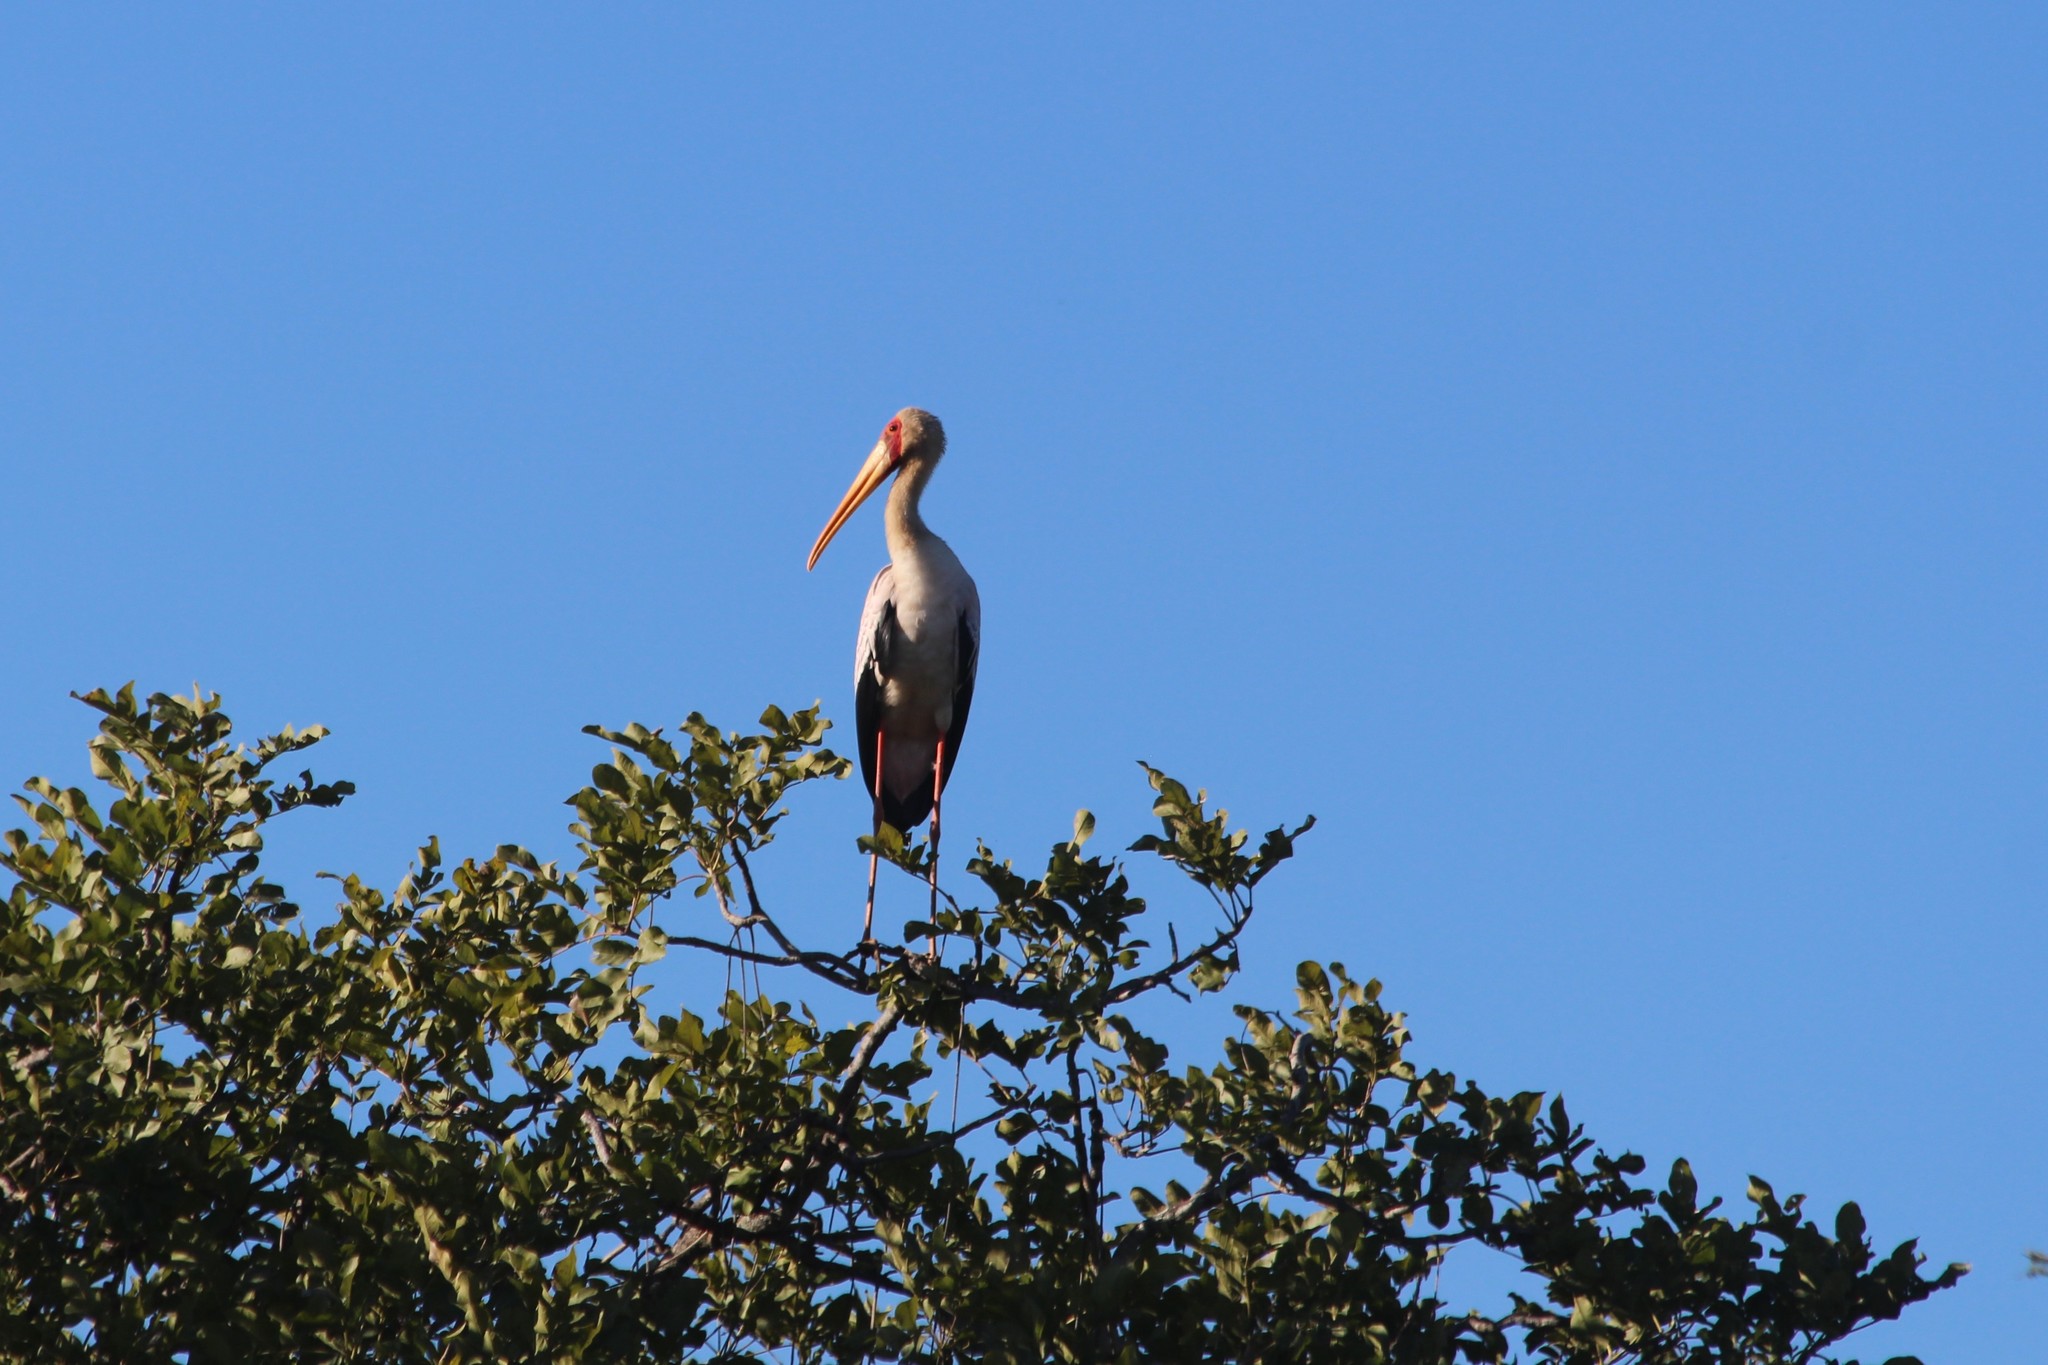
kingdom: Animalia
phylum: Chordata
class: Aves
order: Ciconiiformes
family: Ciconiidae
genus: Mycteria
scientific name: Mycteria ibis
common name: Yellow-billed stork
